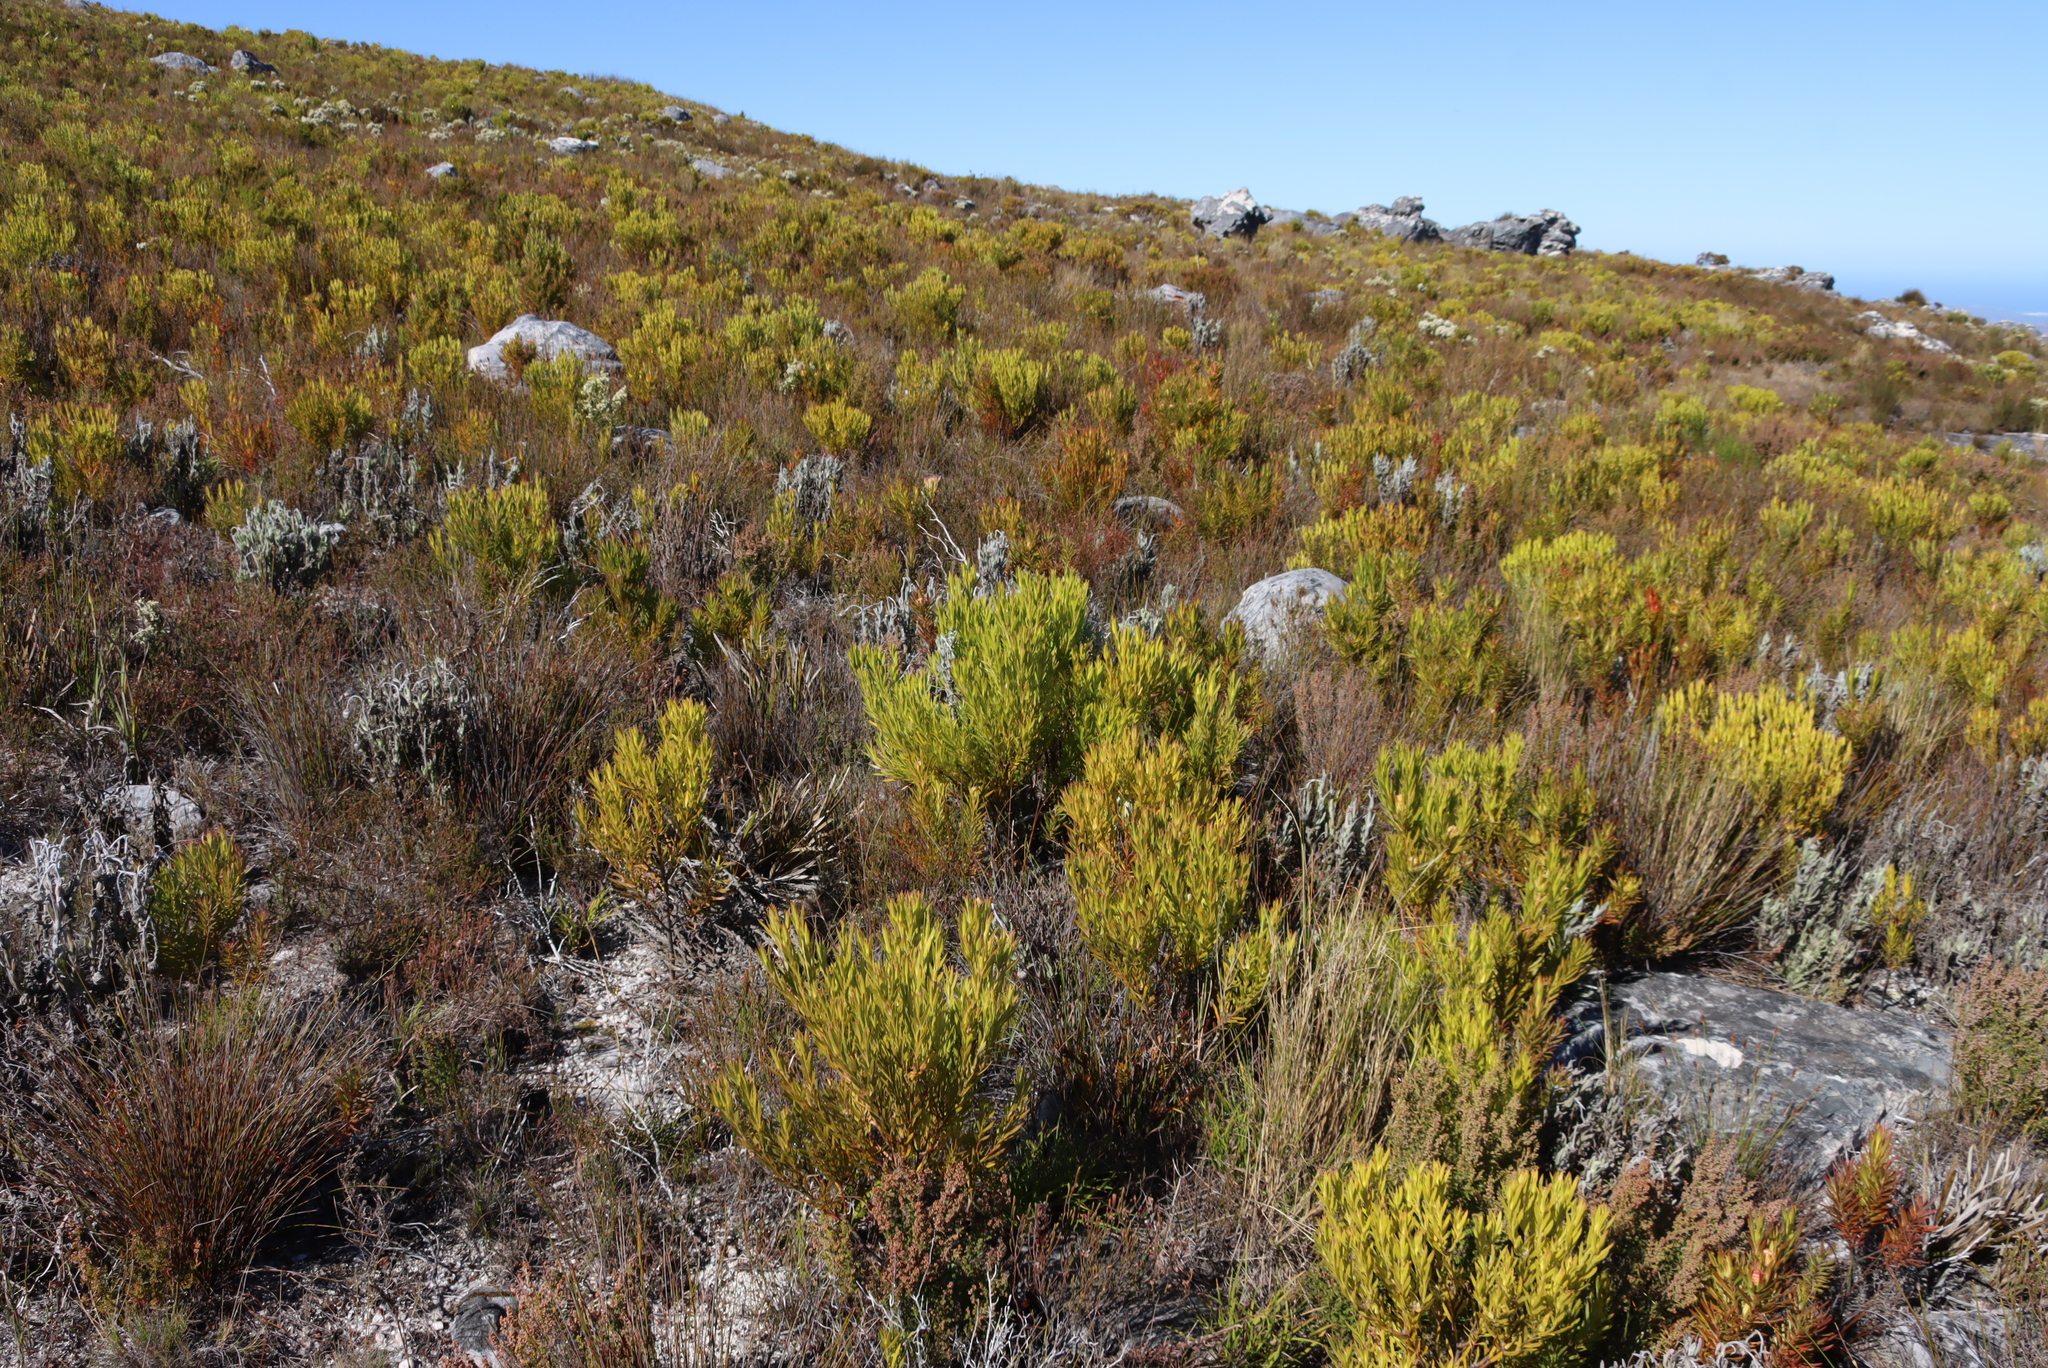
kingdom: Plantae
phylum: Tracheophyta
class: Magnoliopsida
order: Proteales
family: Proteaceae
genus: Leucadendron
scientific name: Leucadendron xanthoconus
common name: Sickle-leaf conebush
